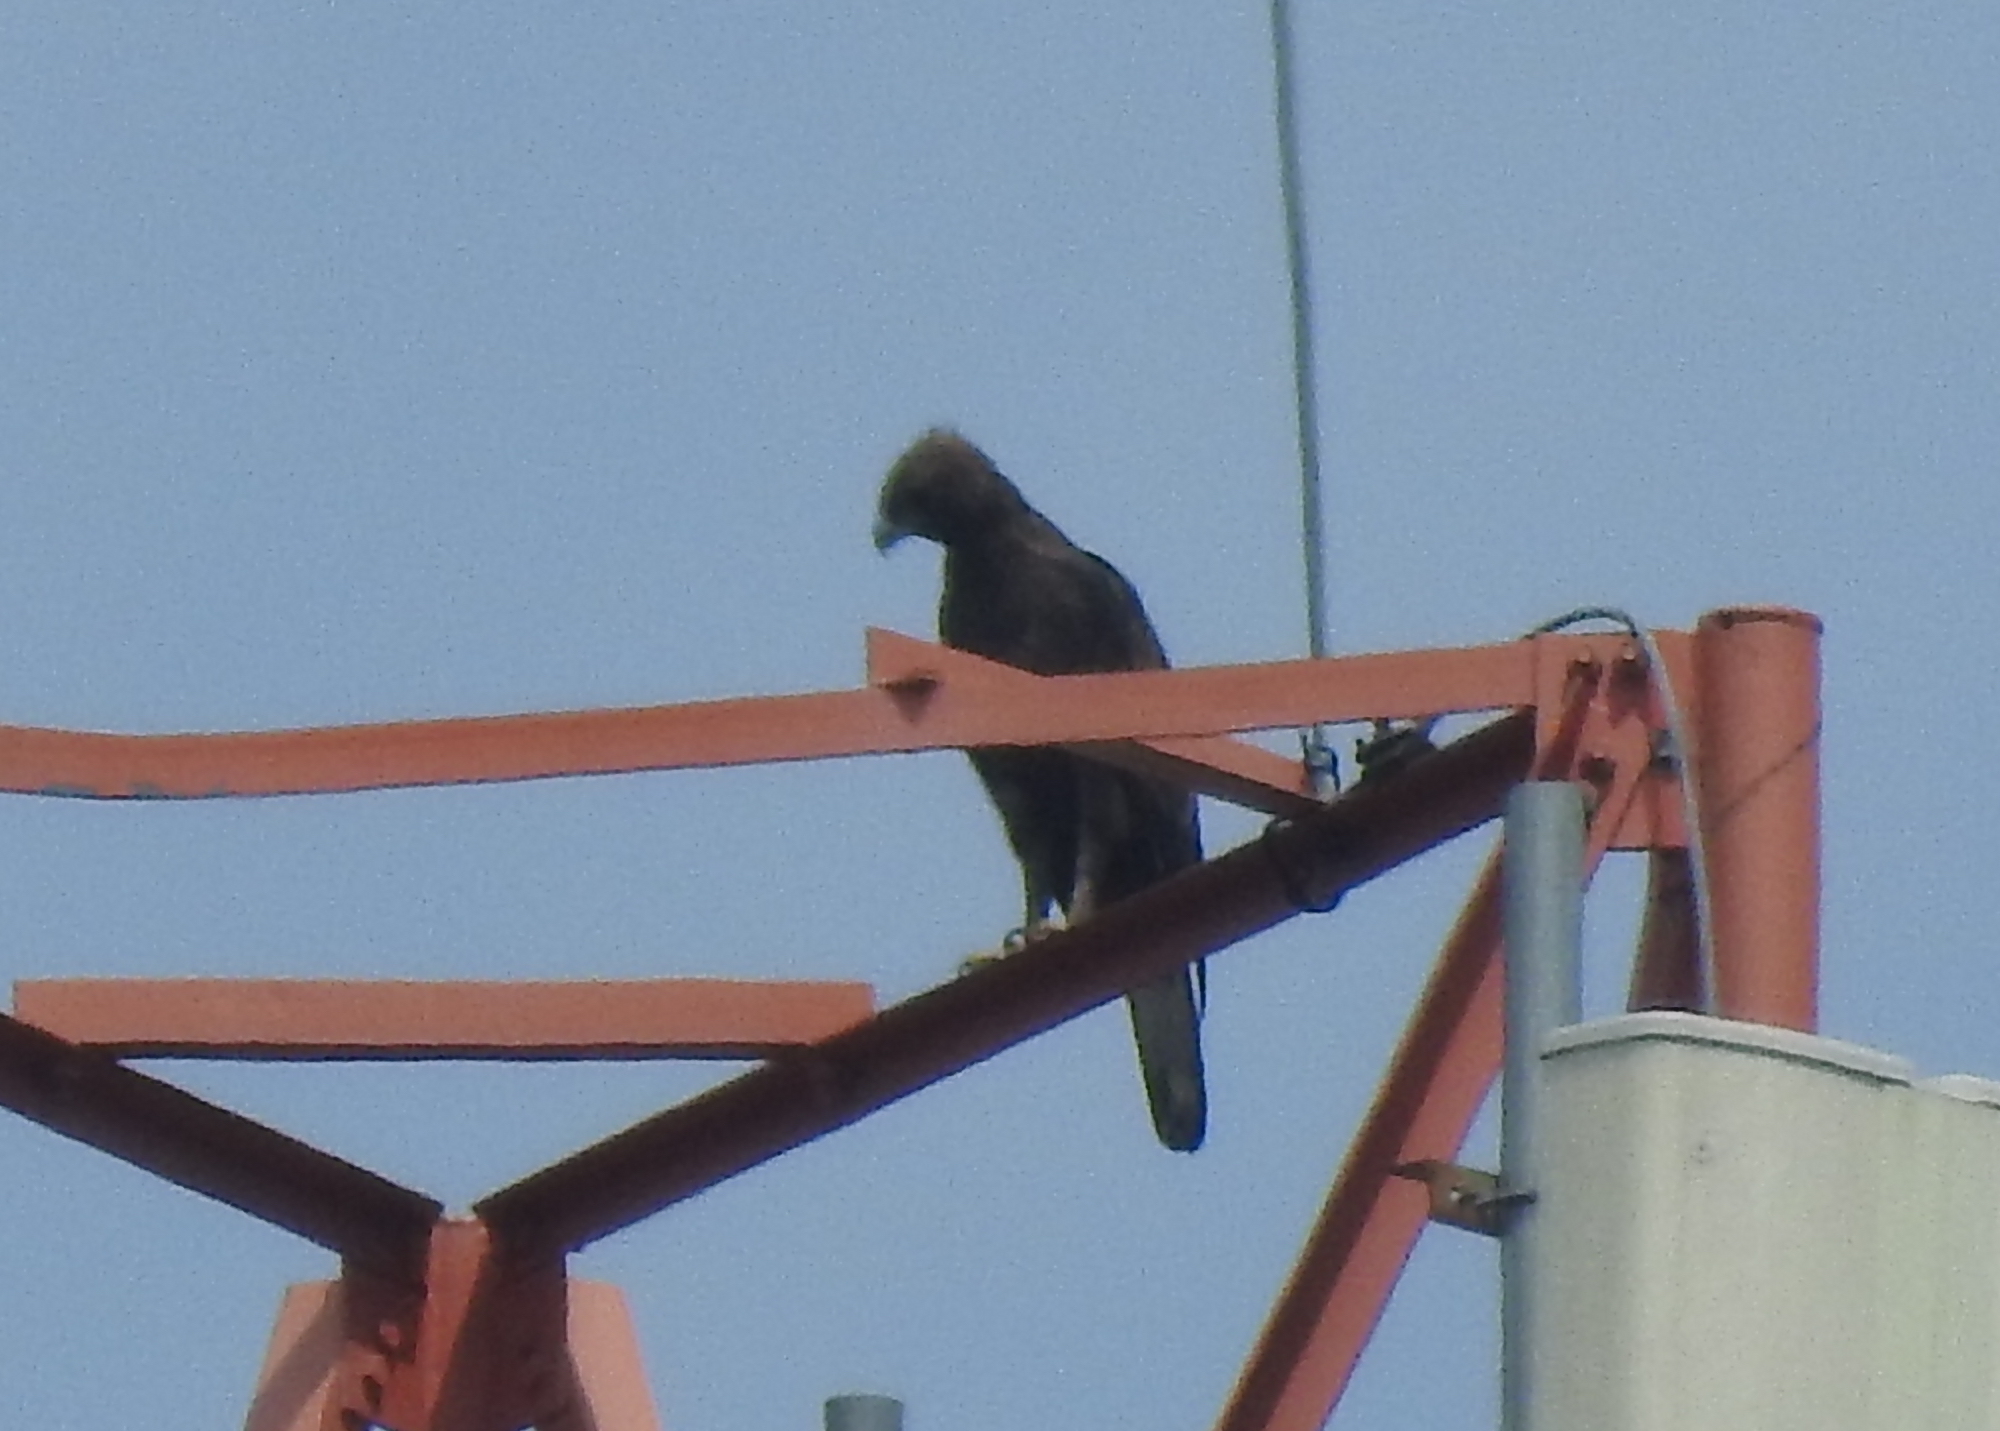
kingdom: Animalia
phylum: Chordata
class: Aves
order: Accipitriformes
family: Accipitridae
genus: Nisaetus
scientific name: Nisaetus cirrhatus
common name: Changeable hawk-eagle
